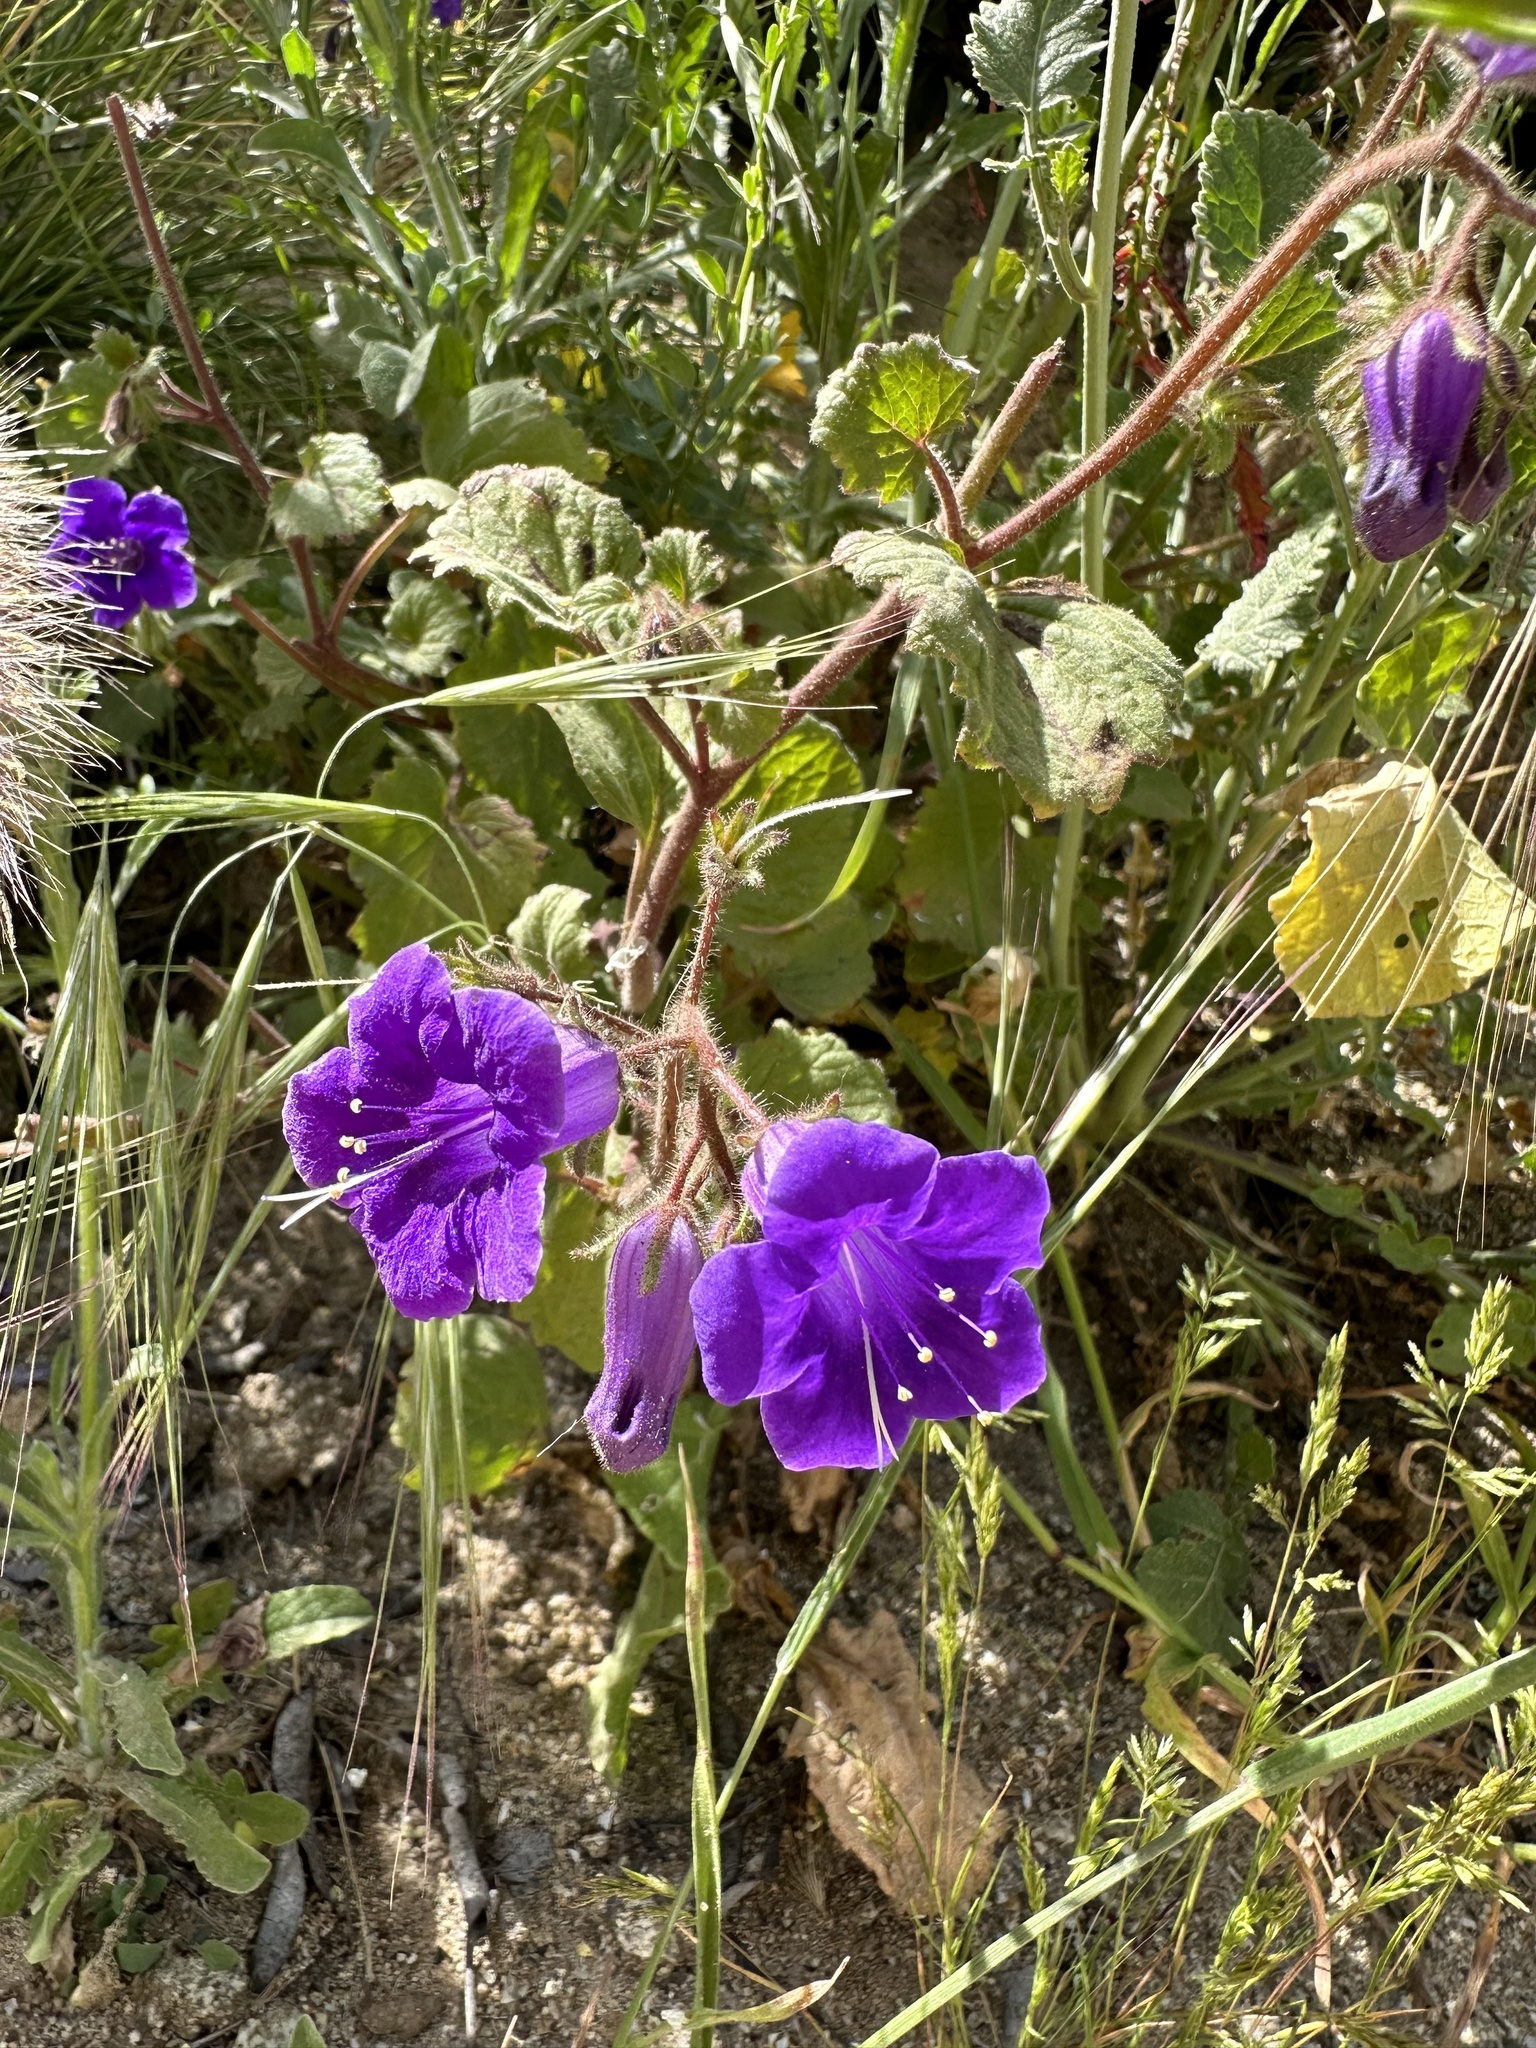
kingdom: Plantae
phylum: Tracheophyta
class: Magnoliopsida
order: Boraginales
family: Hydrophyllaceae
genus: Phacelia
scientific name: Phacelia minor
